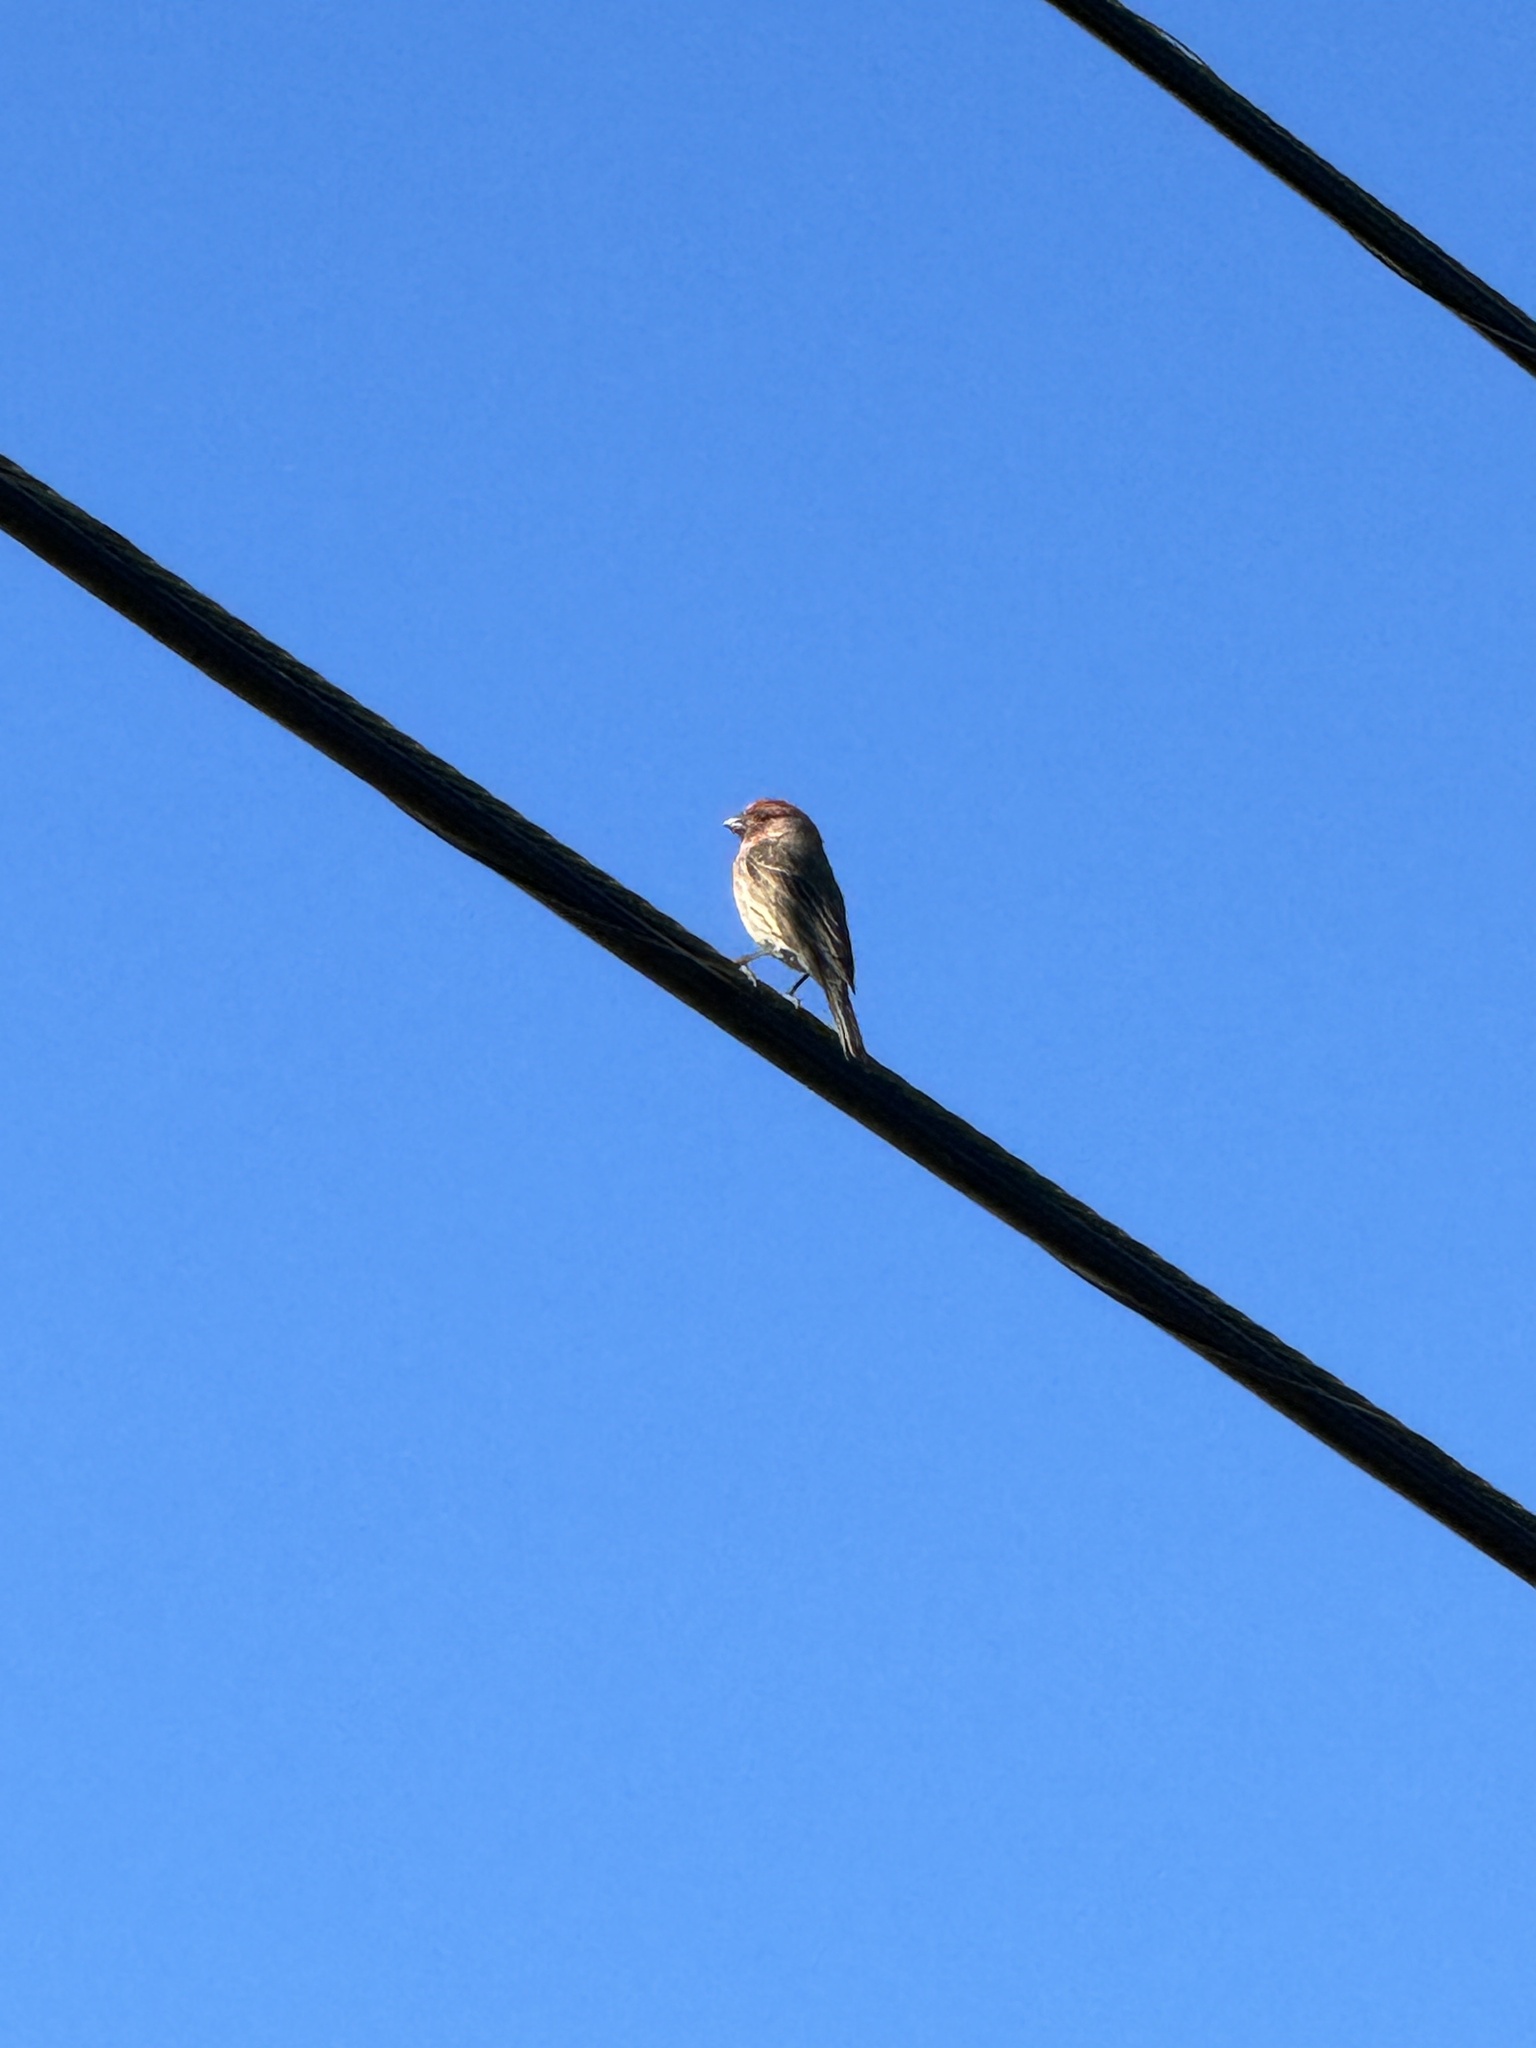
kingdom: Animalia
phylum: Chordata
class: Aves
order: Passeriformes
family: Fringillidae
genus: Haemorhous
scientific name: Haemorhous mexicanus
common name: House finch
